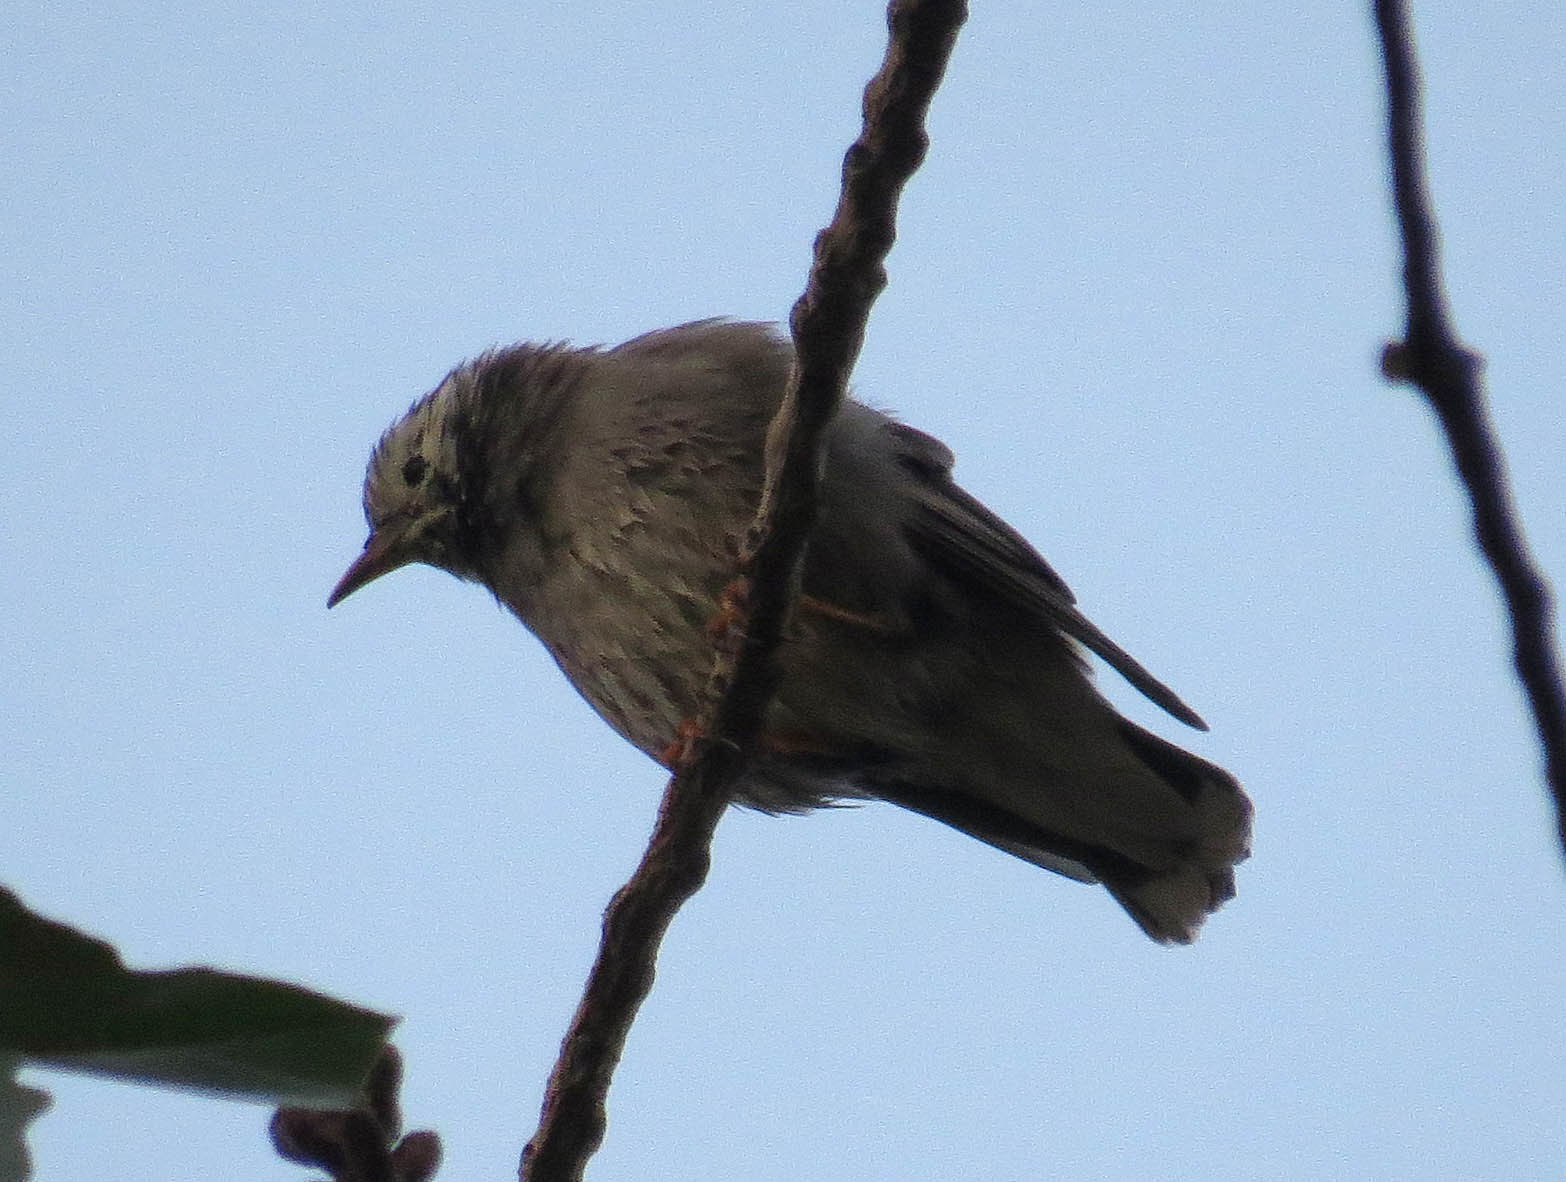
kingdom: Animalia
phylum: Chordata
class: Aves
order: Passeriformes
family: Sturnidae
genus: Spodiopsar
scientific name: Spodiopsar cineraceus
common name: White-cheeked starling
